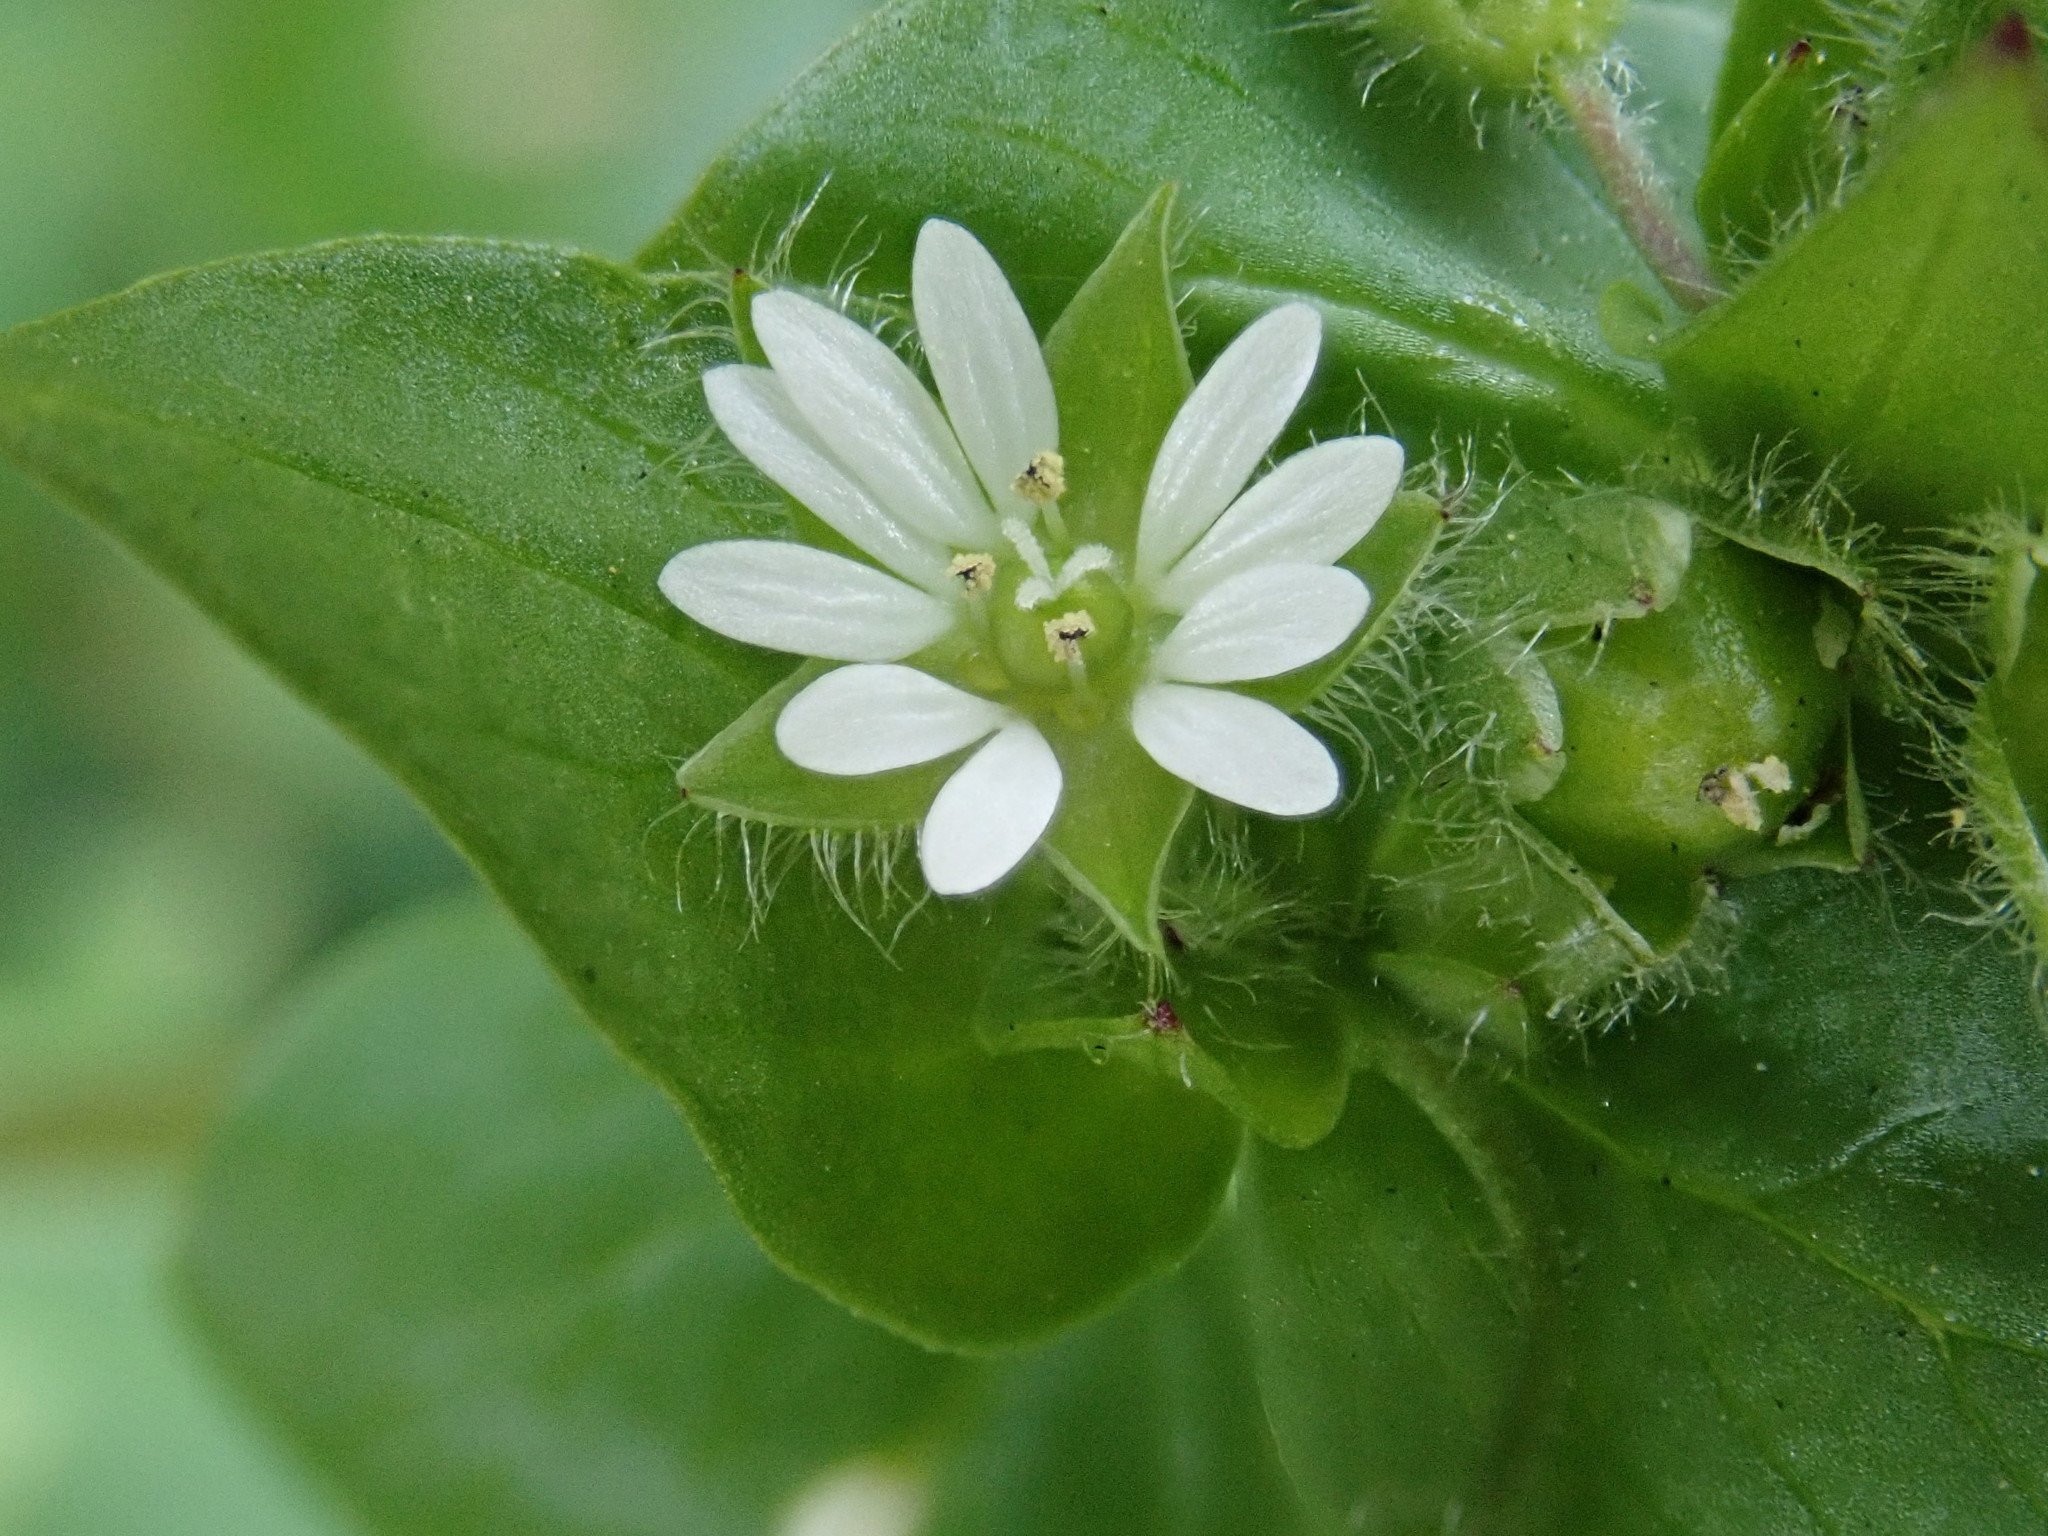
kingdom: Plantae
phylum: Tracheophyta
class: Magnoliopsida
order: Caryophyllales
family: Caryophyllaceae
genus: Stellaria
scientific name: Stellaria media
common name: Common chickweed
